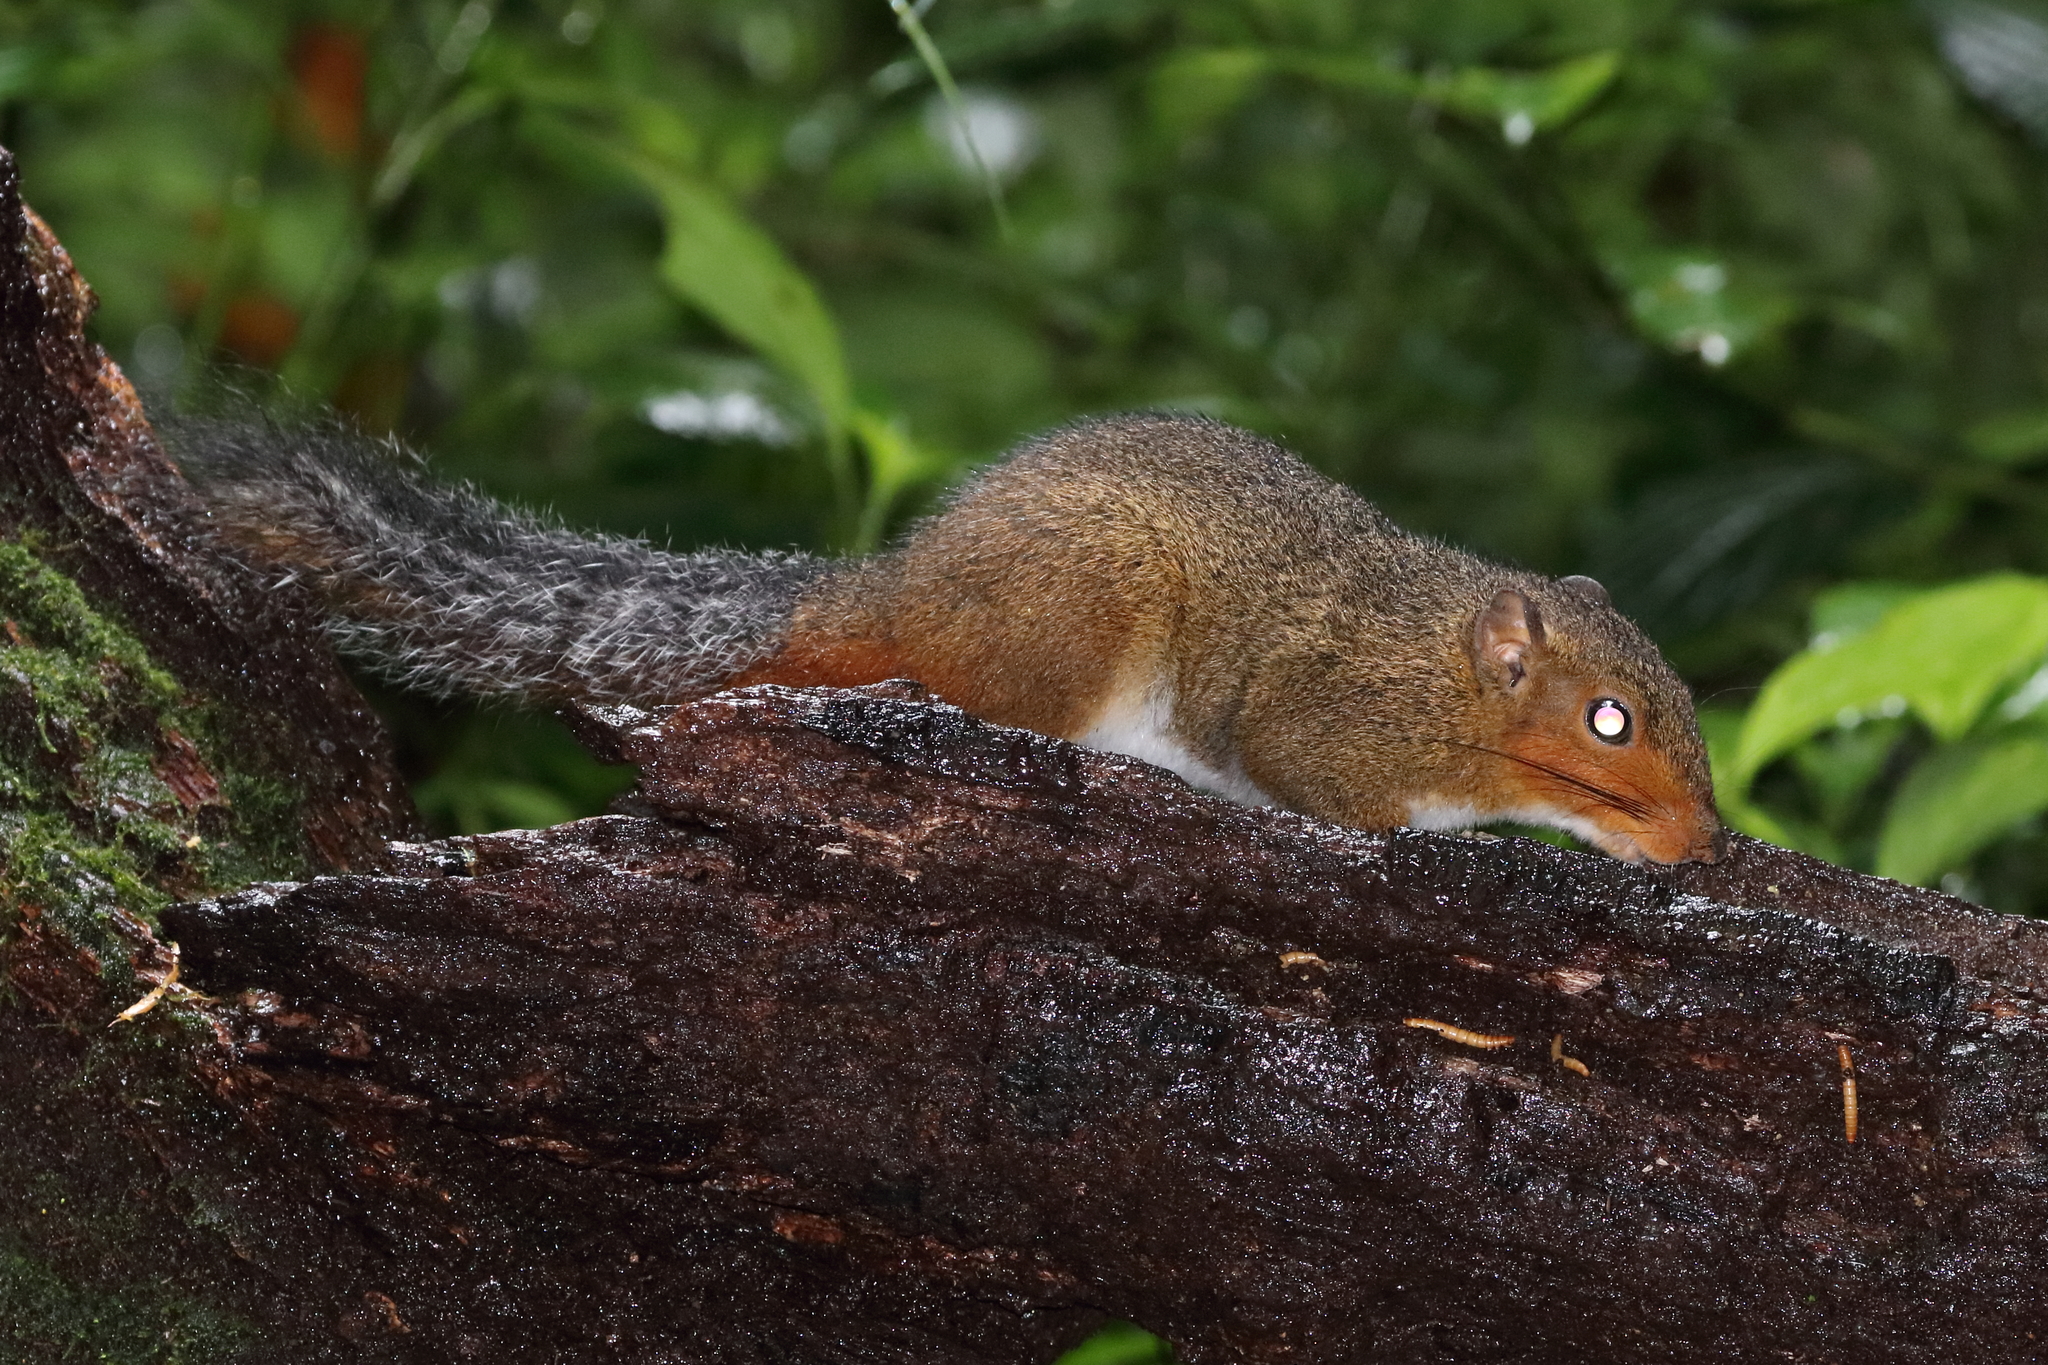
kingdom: Animalia
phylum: Chordata
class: Mammalia
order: Rodentia
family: Sciuridae
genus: Dremomys
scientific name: Dremomys rufigenis
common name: Asian red-cheeked squirrel
